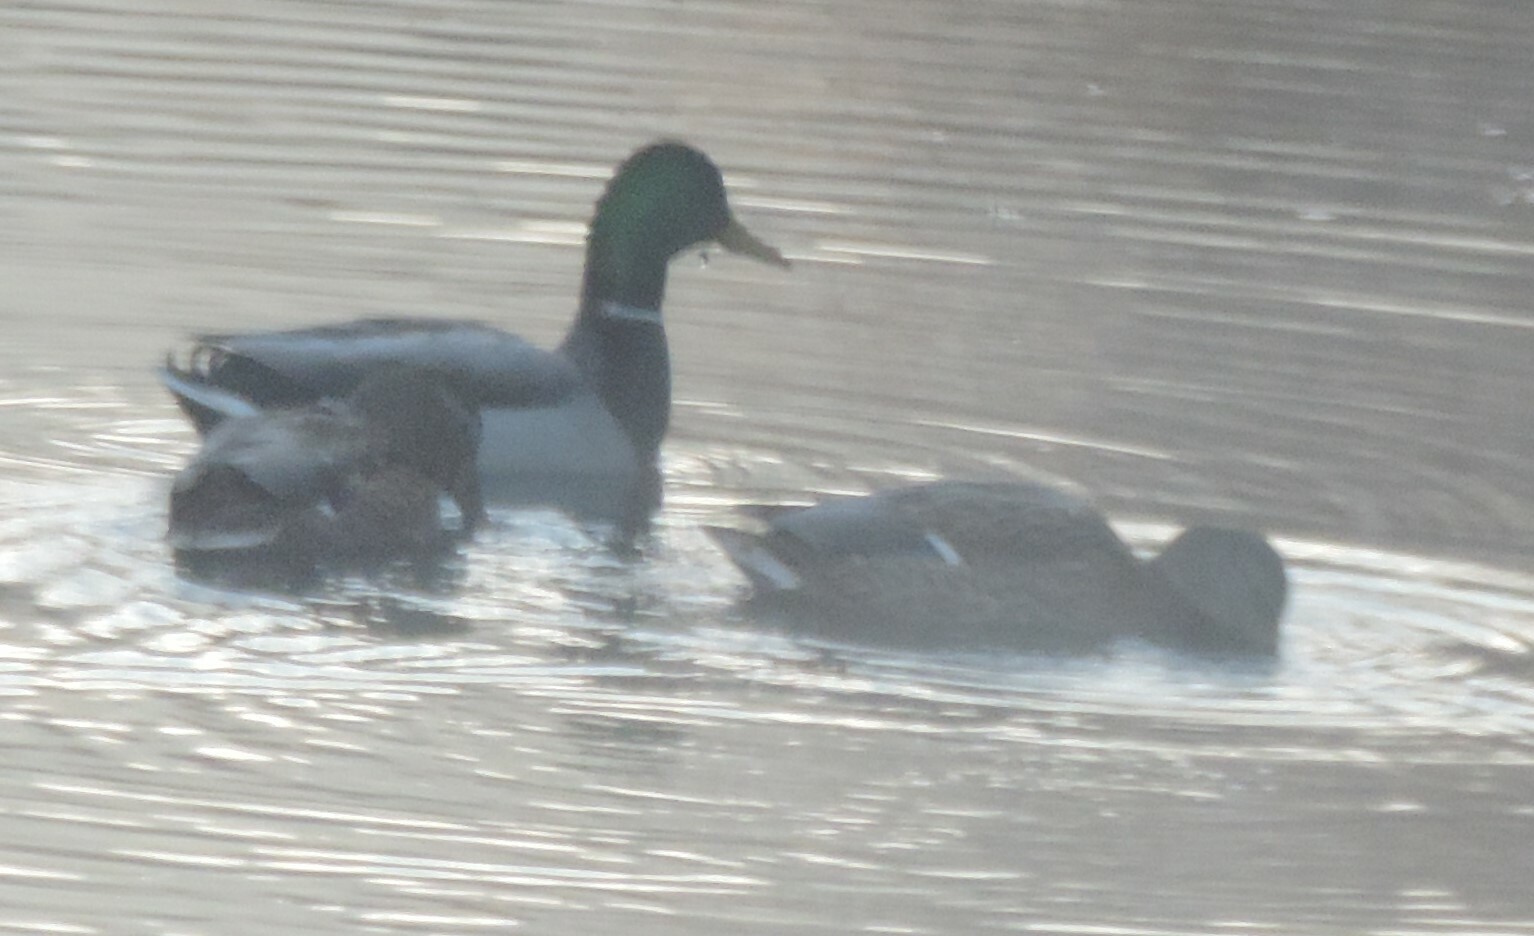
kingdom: Animalia
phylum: Chordata
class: Aves
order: Anseriformes
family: Anatidae
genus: Anas
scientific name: Anas platyrhynchos
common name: Mallard
